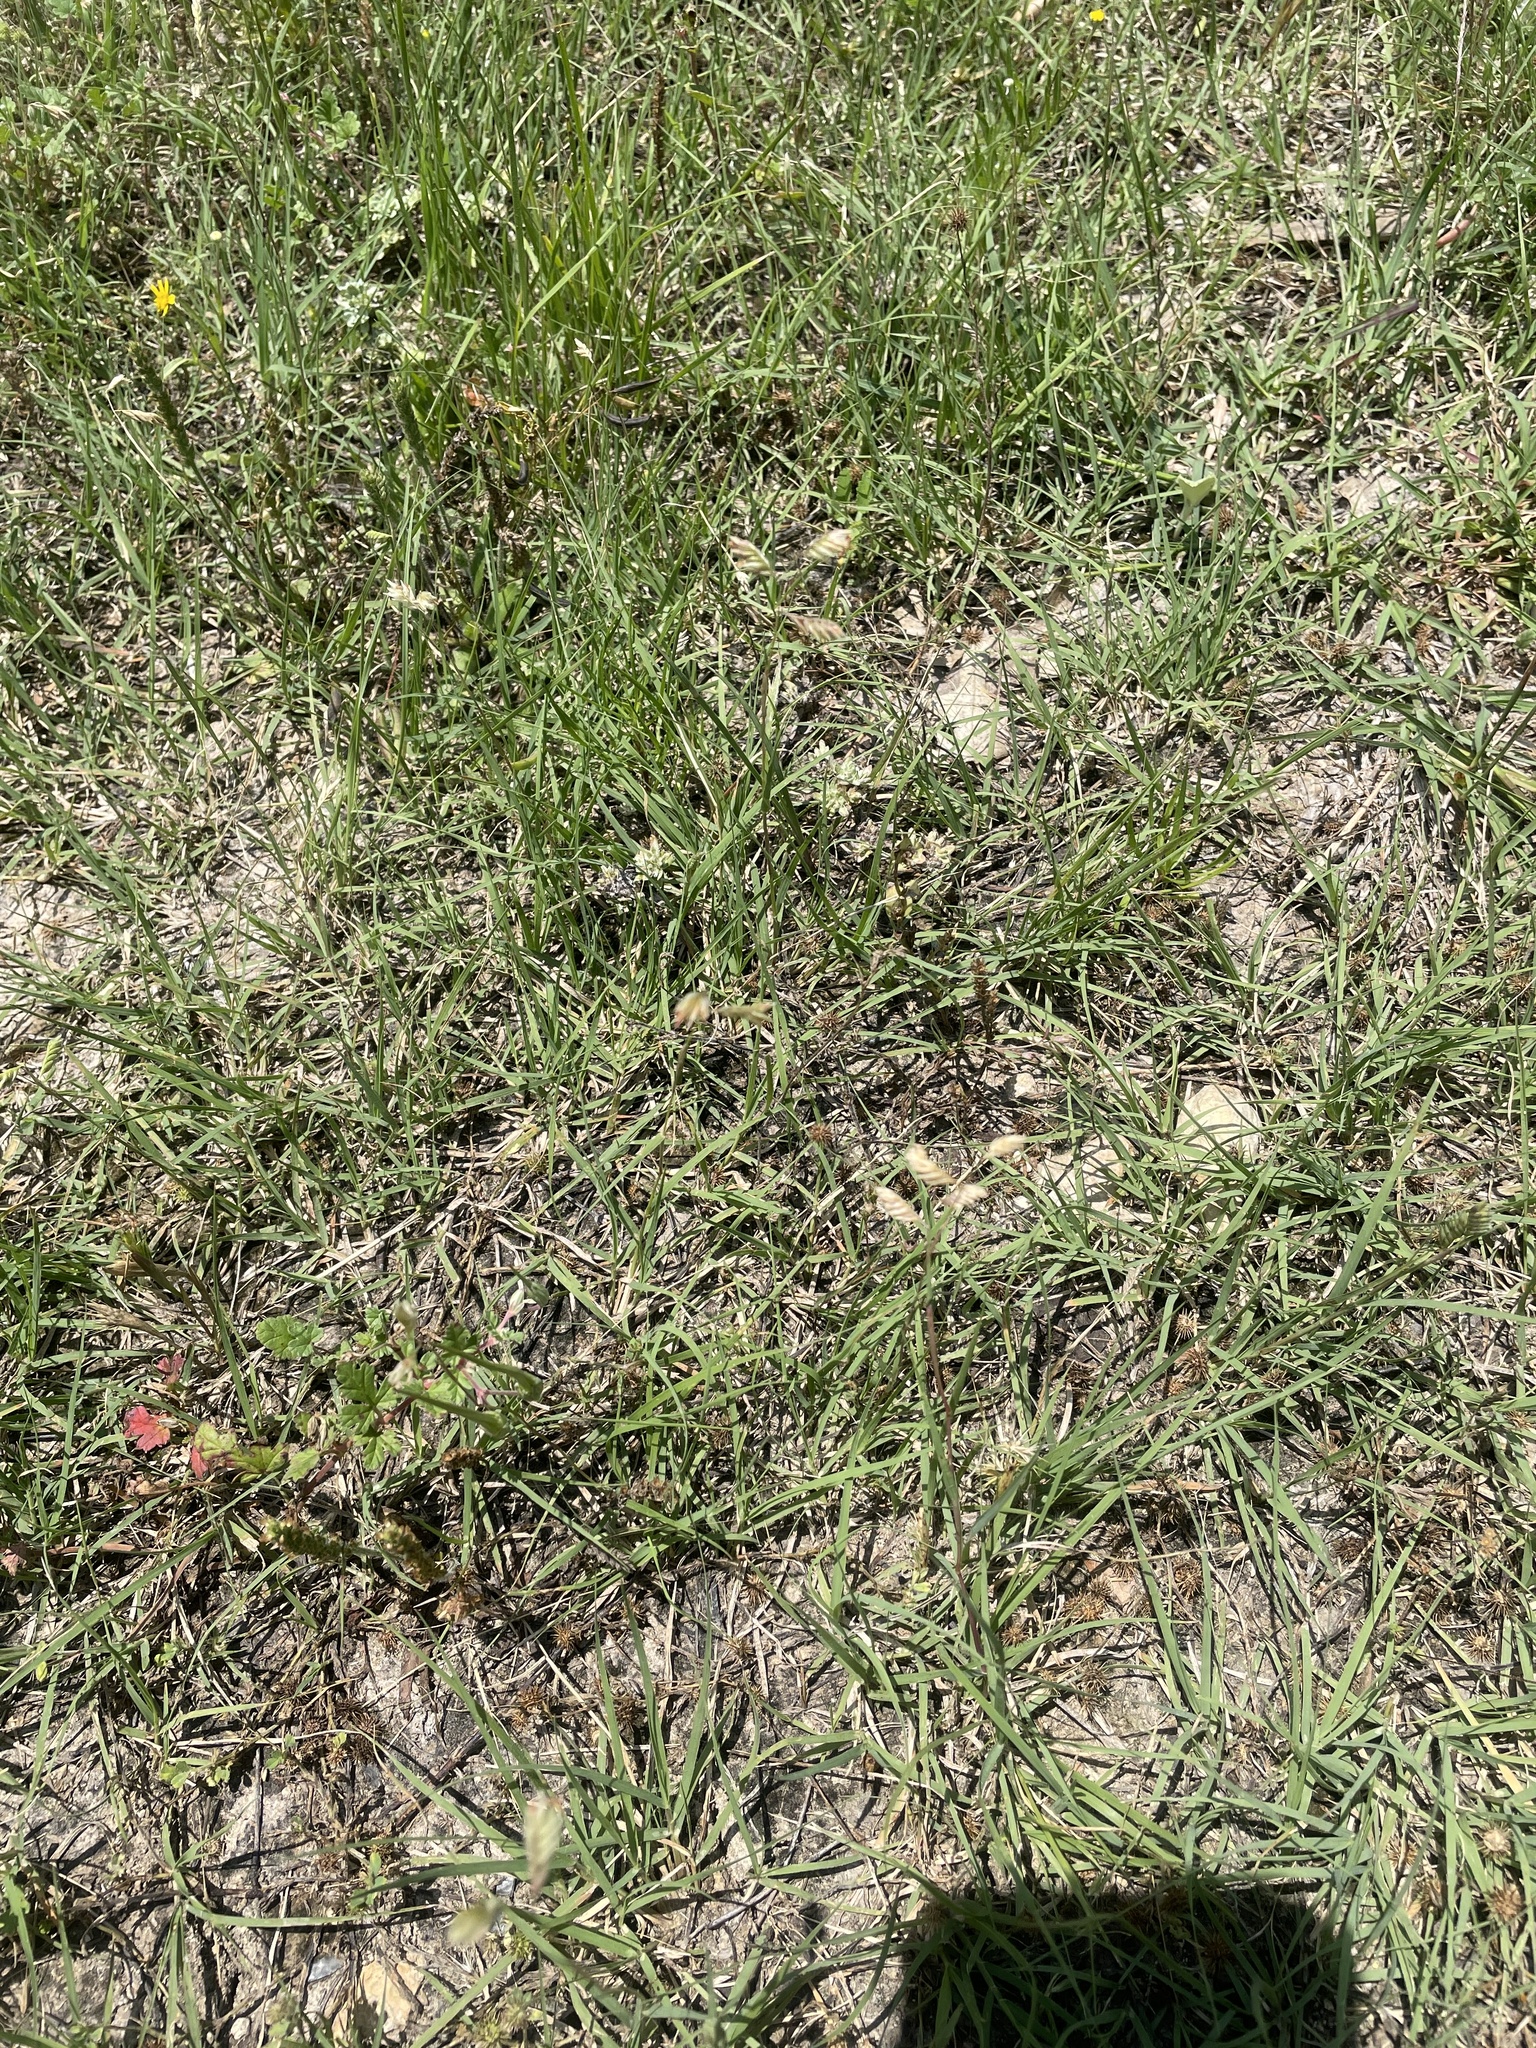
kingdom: Plantae
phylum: Tracheophyta
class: Liliopsida
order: Poales
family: Poaceae
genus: Bouteloua
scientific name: Bouteloua dactyloides
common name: Buffalo grass
